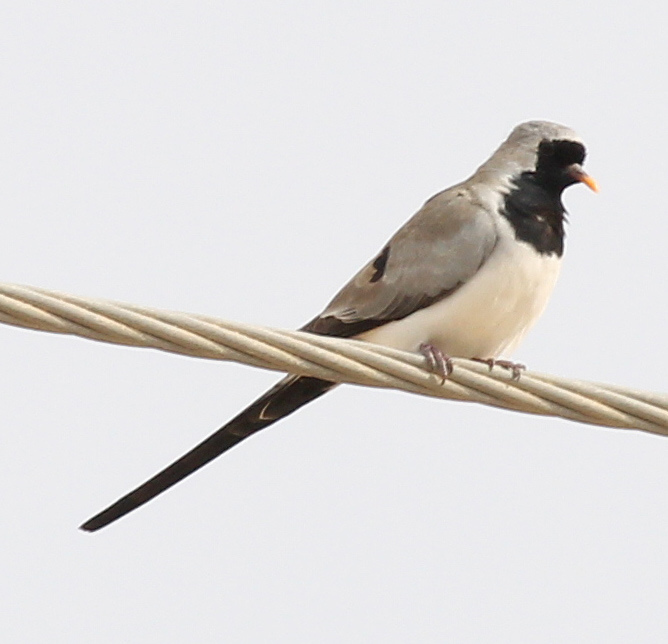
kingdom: Animalia
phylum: Chordata
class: Aves
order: Columbiformes
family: Columbidae
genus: Oena
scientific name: Oena capensis
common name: Namaqua dove
